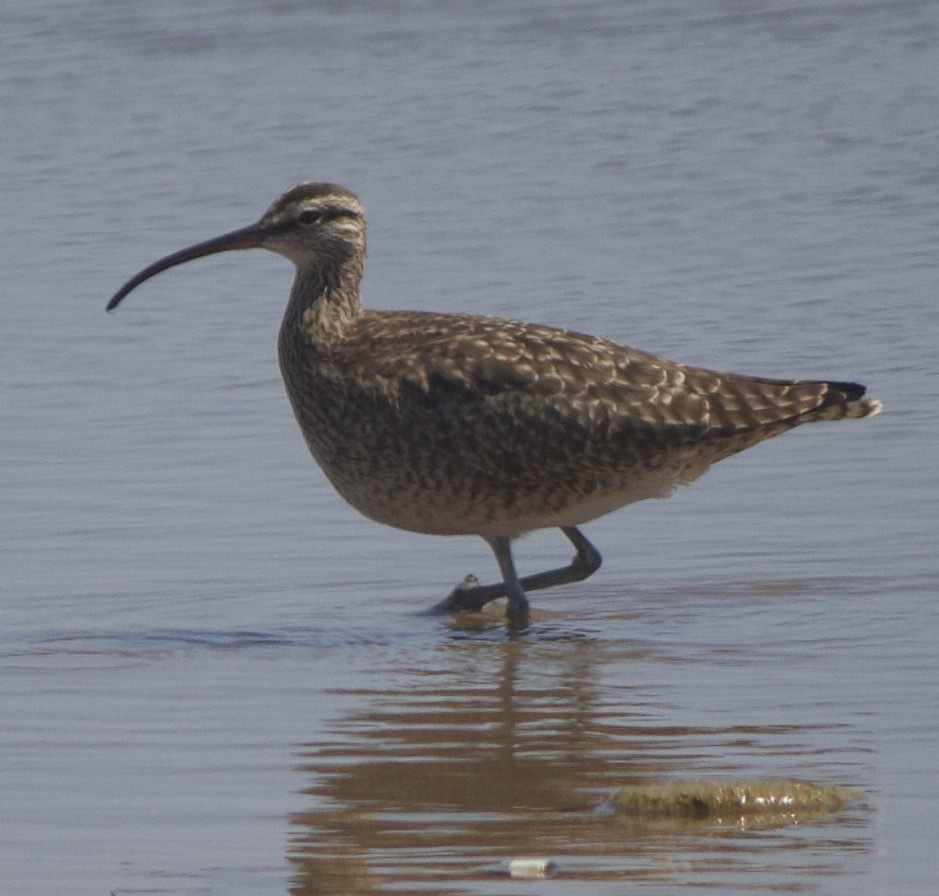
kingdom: Animalia
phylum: Chordata
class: Aves
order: Charadriiformes
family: Scolopacidae
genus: Numenius
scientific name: Numenius phaeopus
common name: Whimbrel
